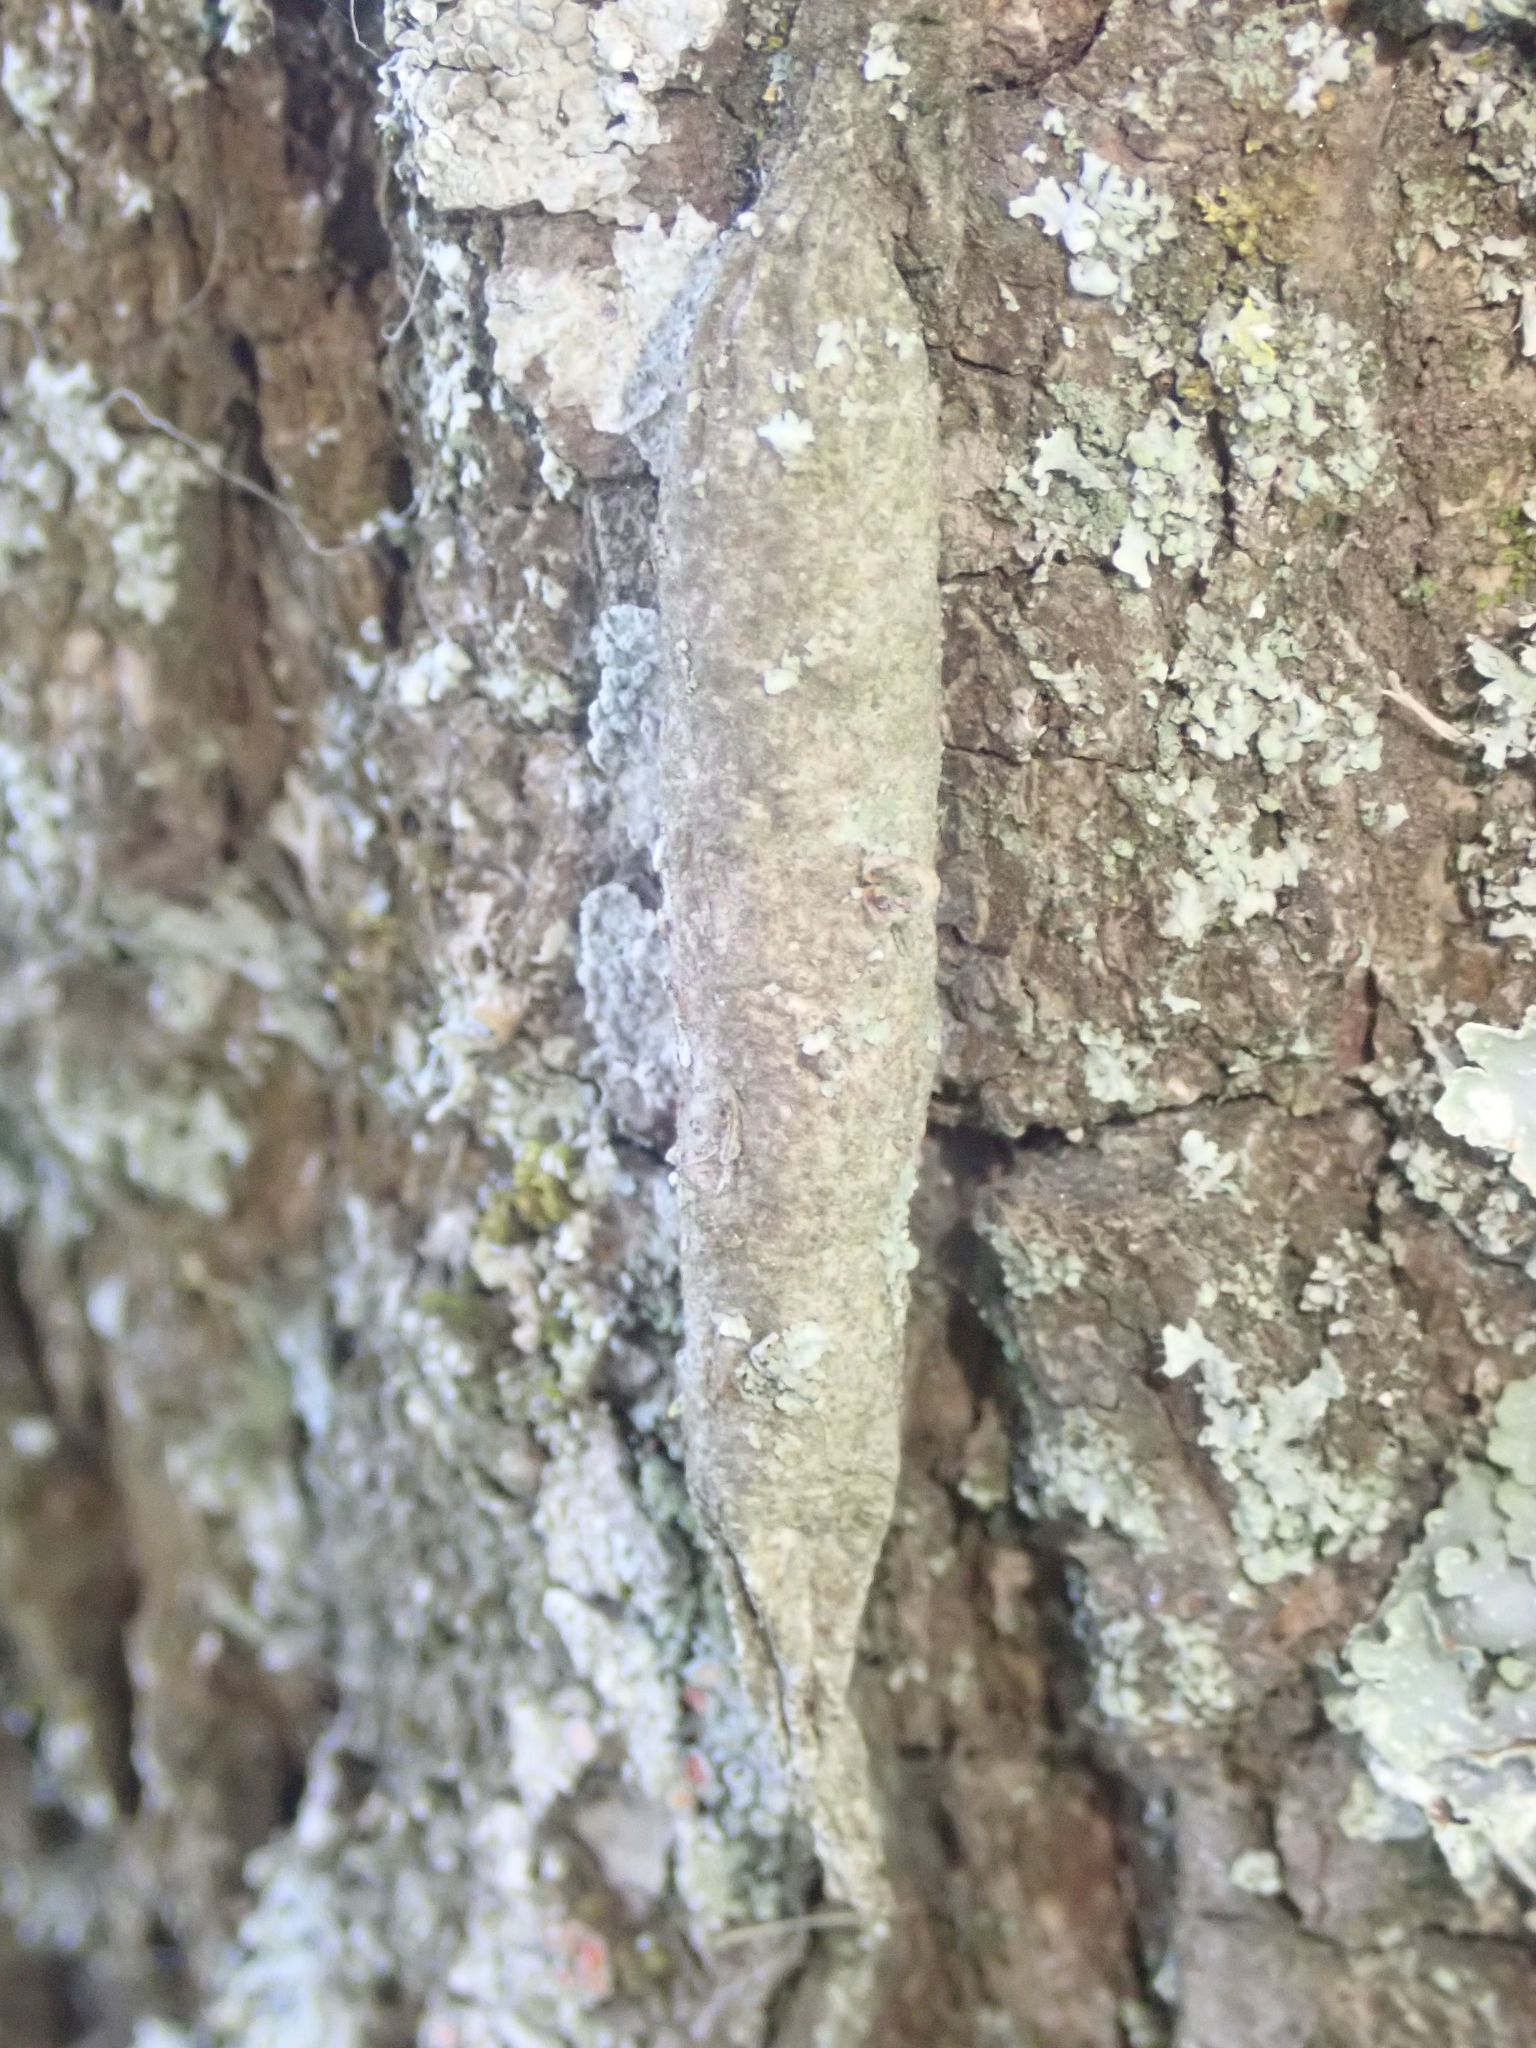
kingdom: Animalia
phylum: Arthropoda
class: Insecta
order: Lepidoptera
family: Psychidae
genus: Liothula
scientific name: Liothula omnivora
